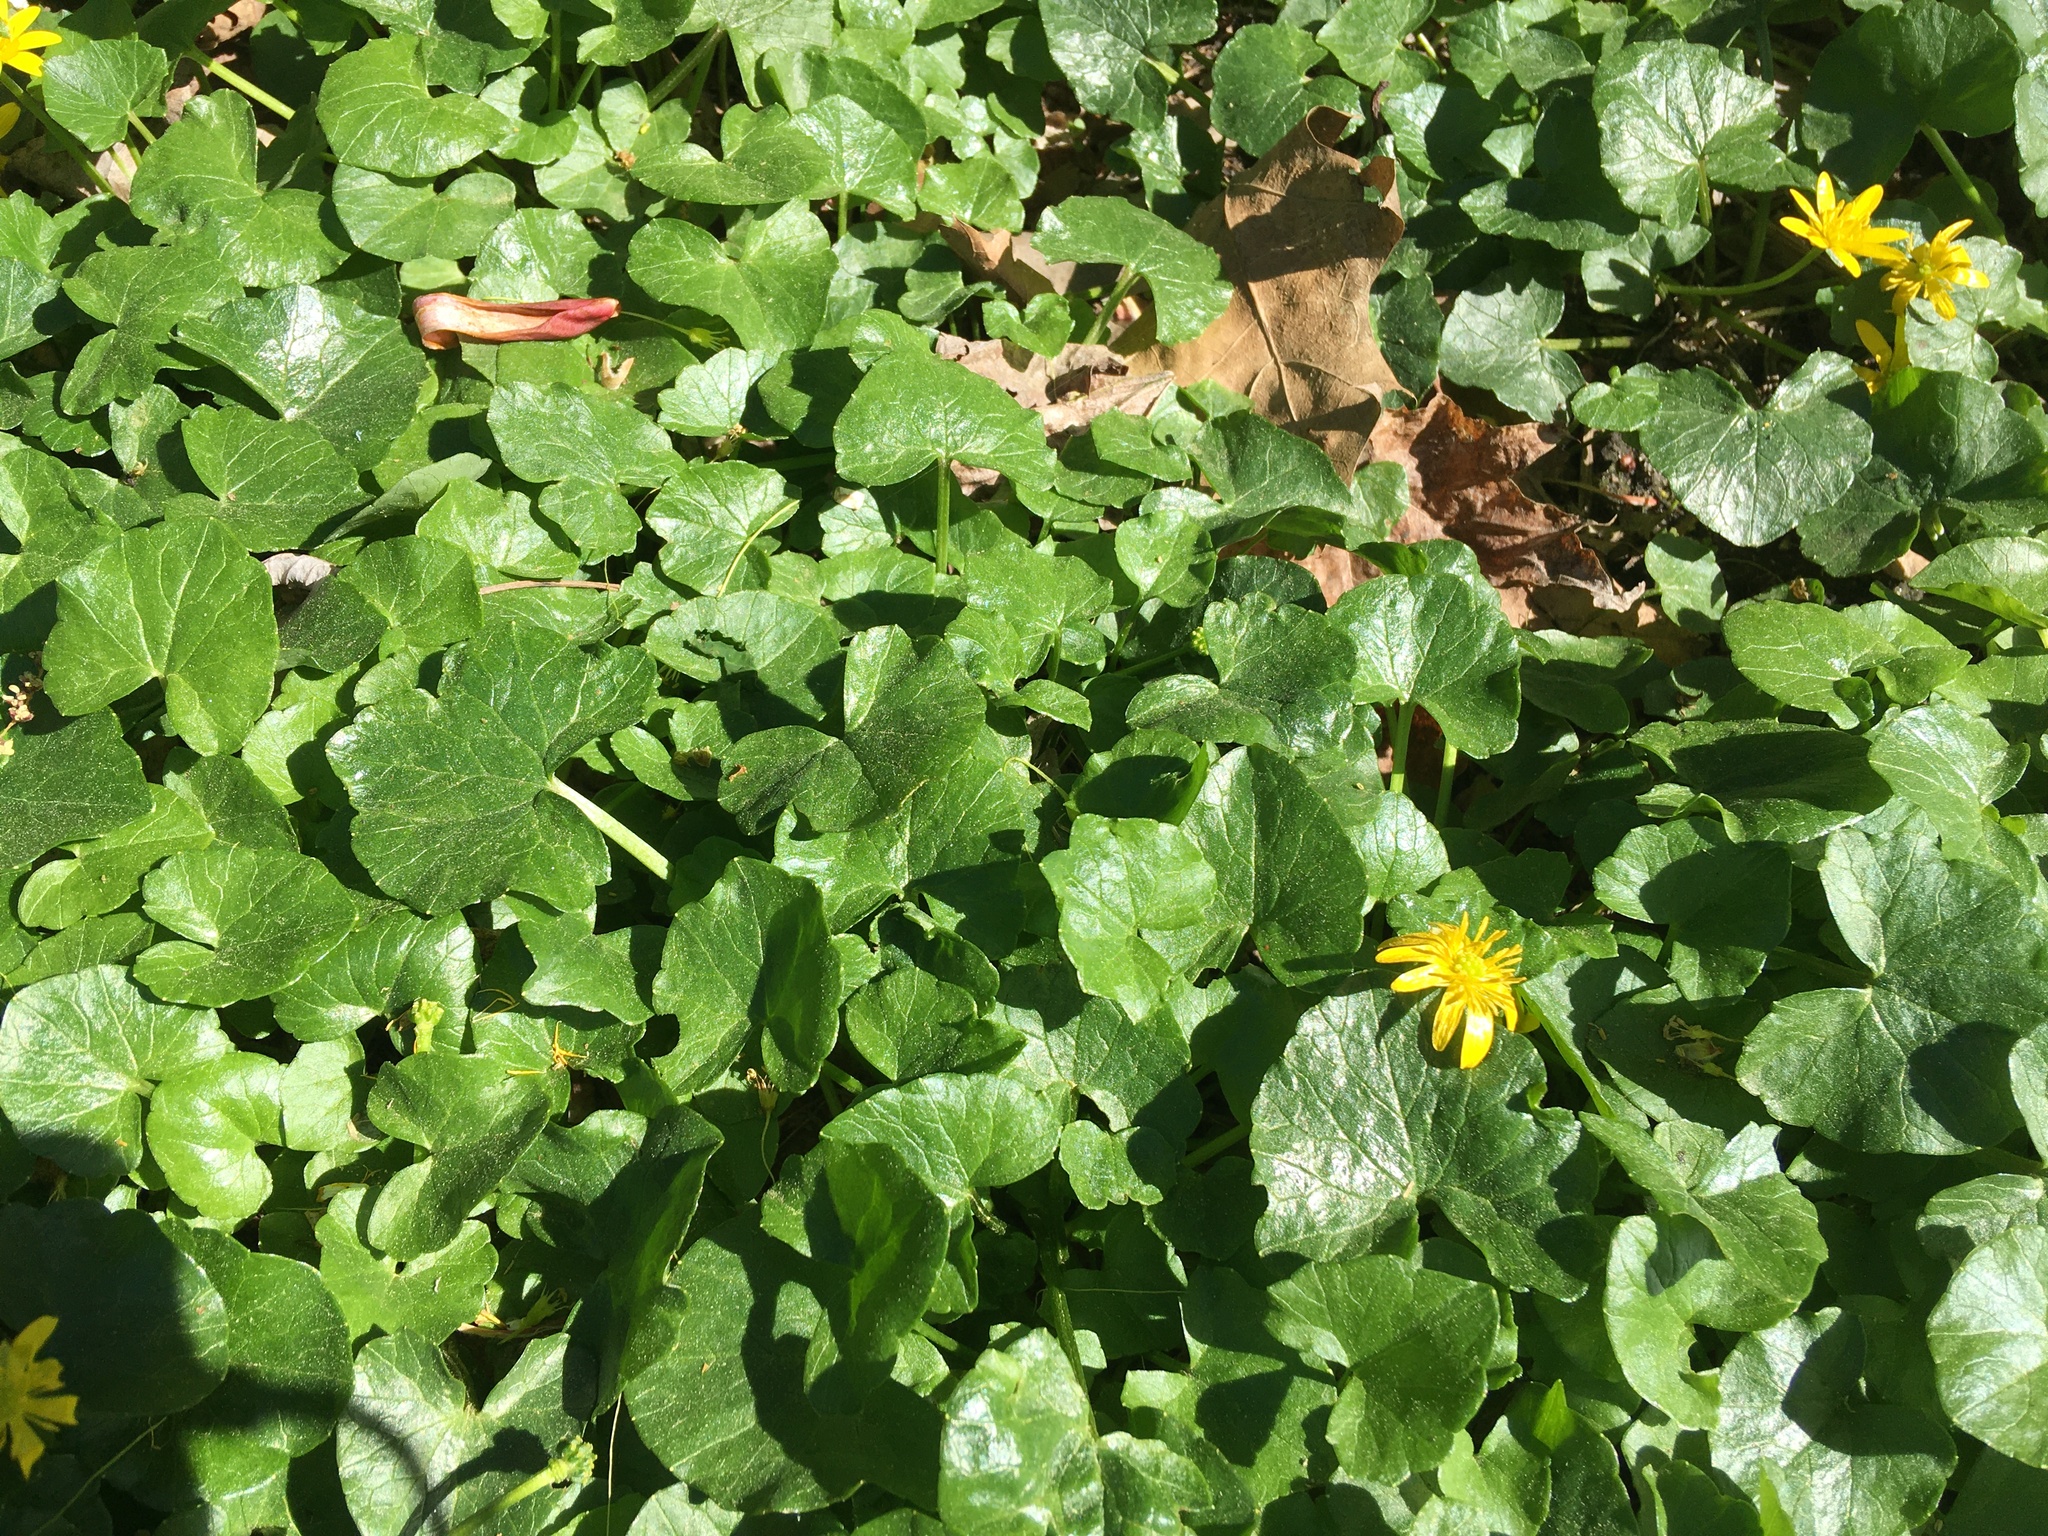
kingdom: Plantae
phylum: Tracheophyta
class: Magnoliopsida
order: Ranunculales
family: Ranunculaceae
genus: Ficaria
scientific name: Ficaria verna
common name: Lesser celandine
